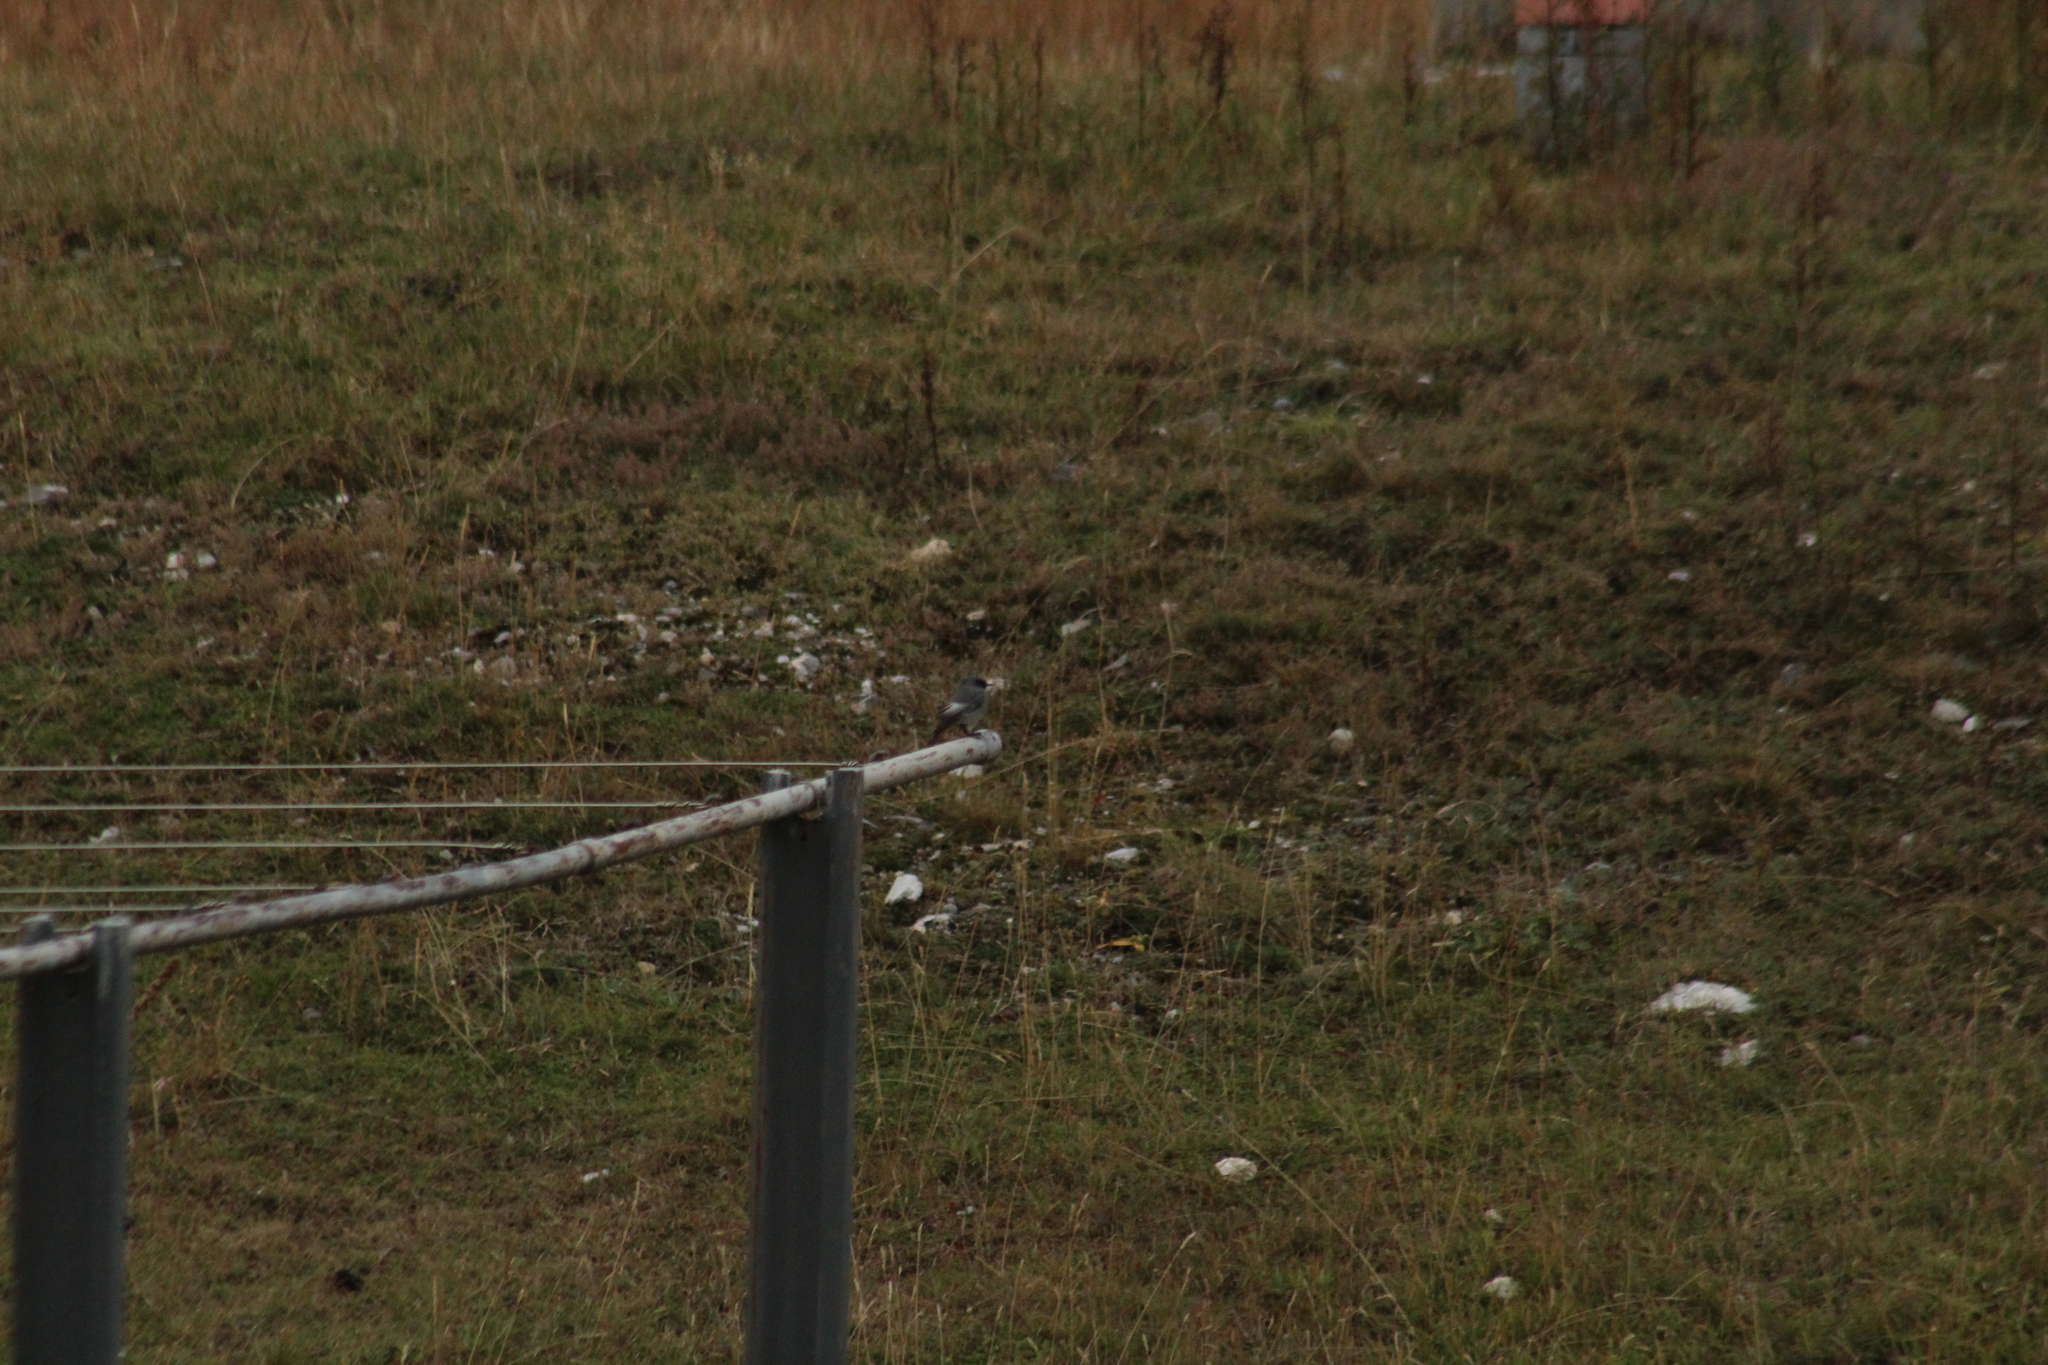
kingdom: Animalia
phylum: Chordata
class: Aves
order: Passeriformes
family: Muscicapidae
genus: Phoenicurus
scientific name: Phoenicurus ochruros
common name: Black redstart
